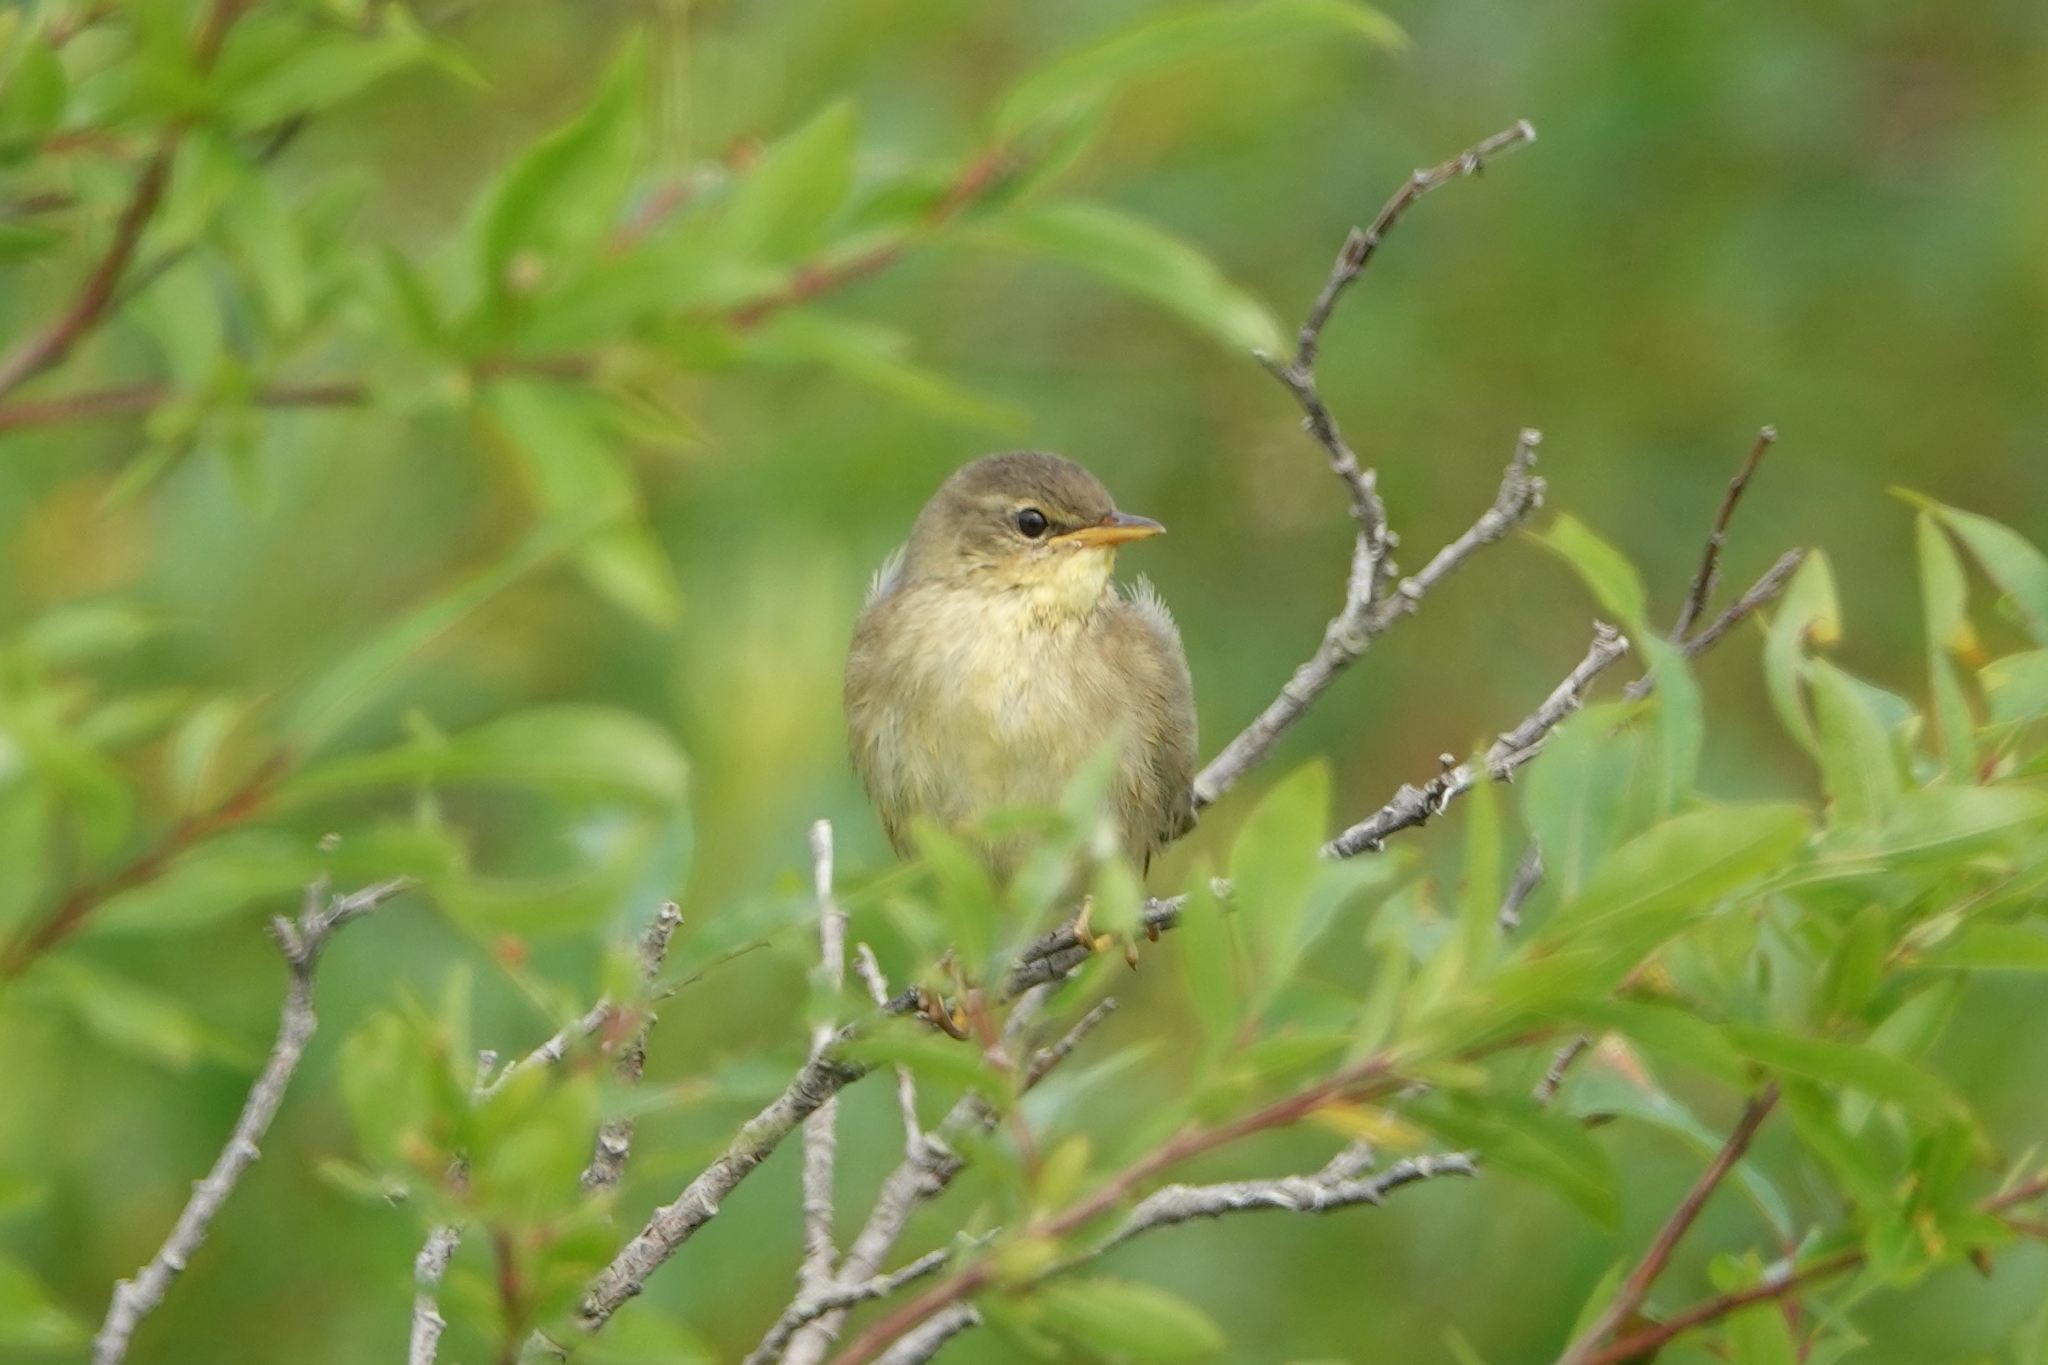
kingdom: Animalia
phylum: Chordata
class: Aves
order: Passeriformes
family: Locustellidae
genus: Locustella
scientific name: Locustella ochotensis
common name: Middendorff's grasshopper-warbler
